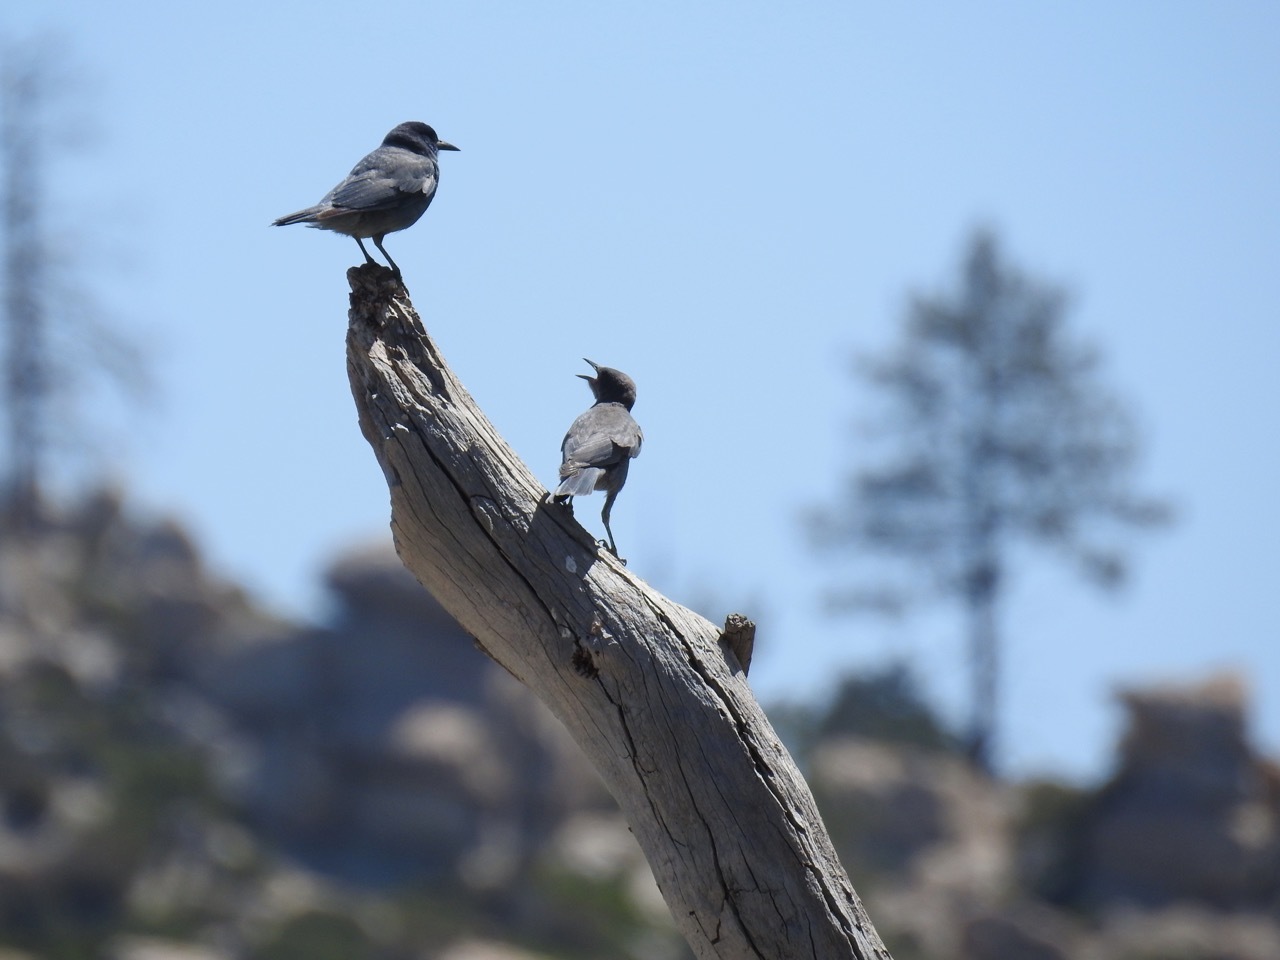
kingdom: Animalia
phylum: Chordata
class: Aves
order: Passeriformes
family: Corvidae
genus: Gymnorhinus
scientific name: Gymnorhinus cyanocephalus
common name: Pinyon jay
